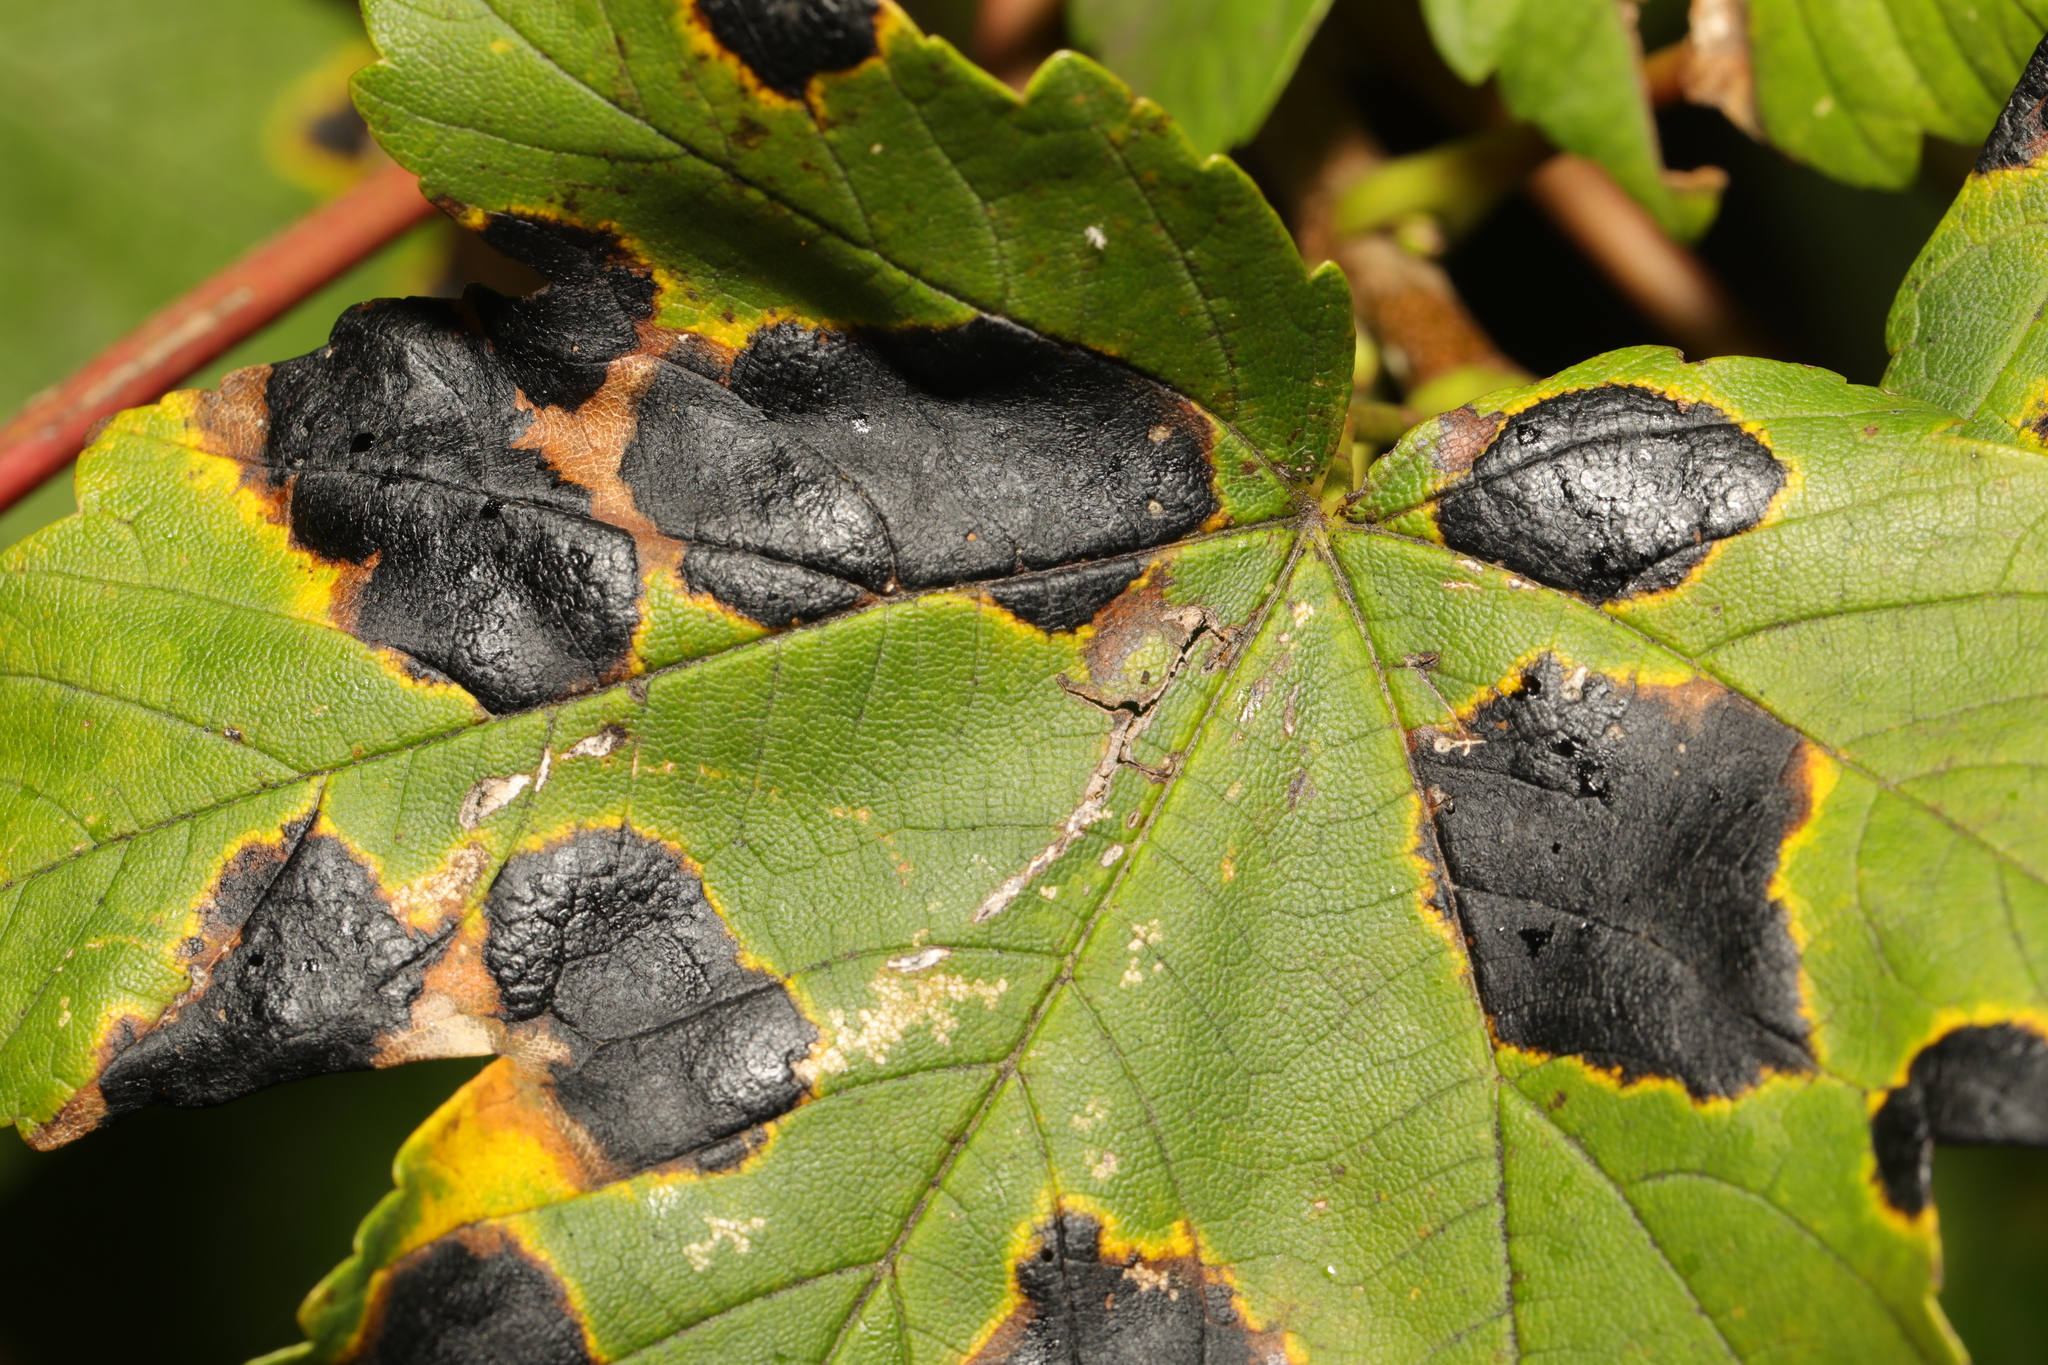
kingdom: Fungi
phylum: Ascomycota
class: Leotiomycetes
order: Rhytismatales
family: Rhytismataceae
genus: Rhytisma
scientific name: Rhytisma acerinum
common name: European tar spot
